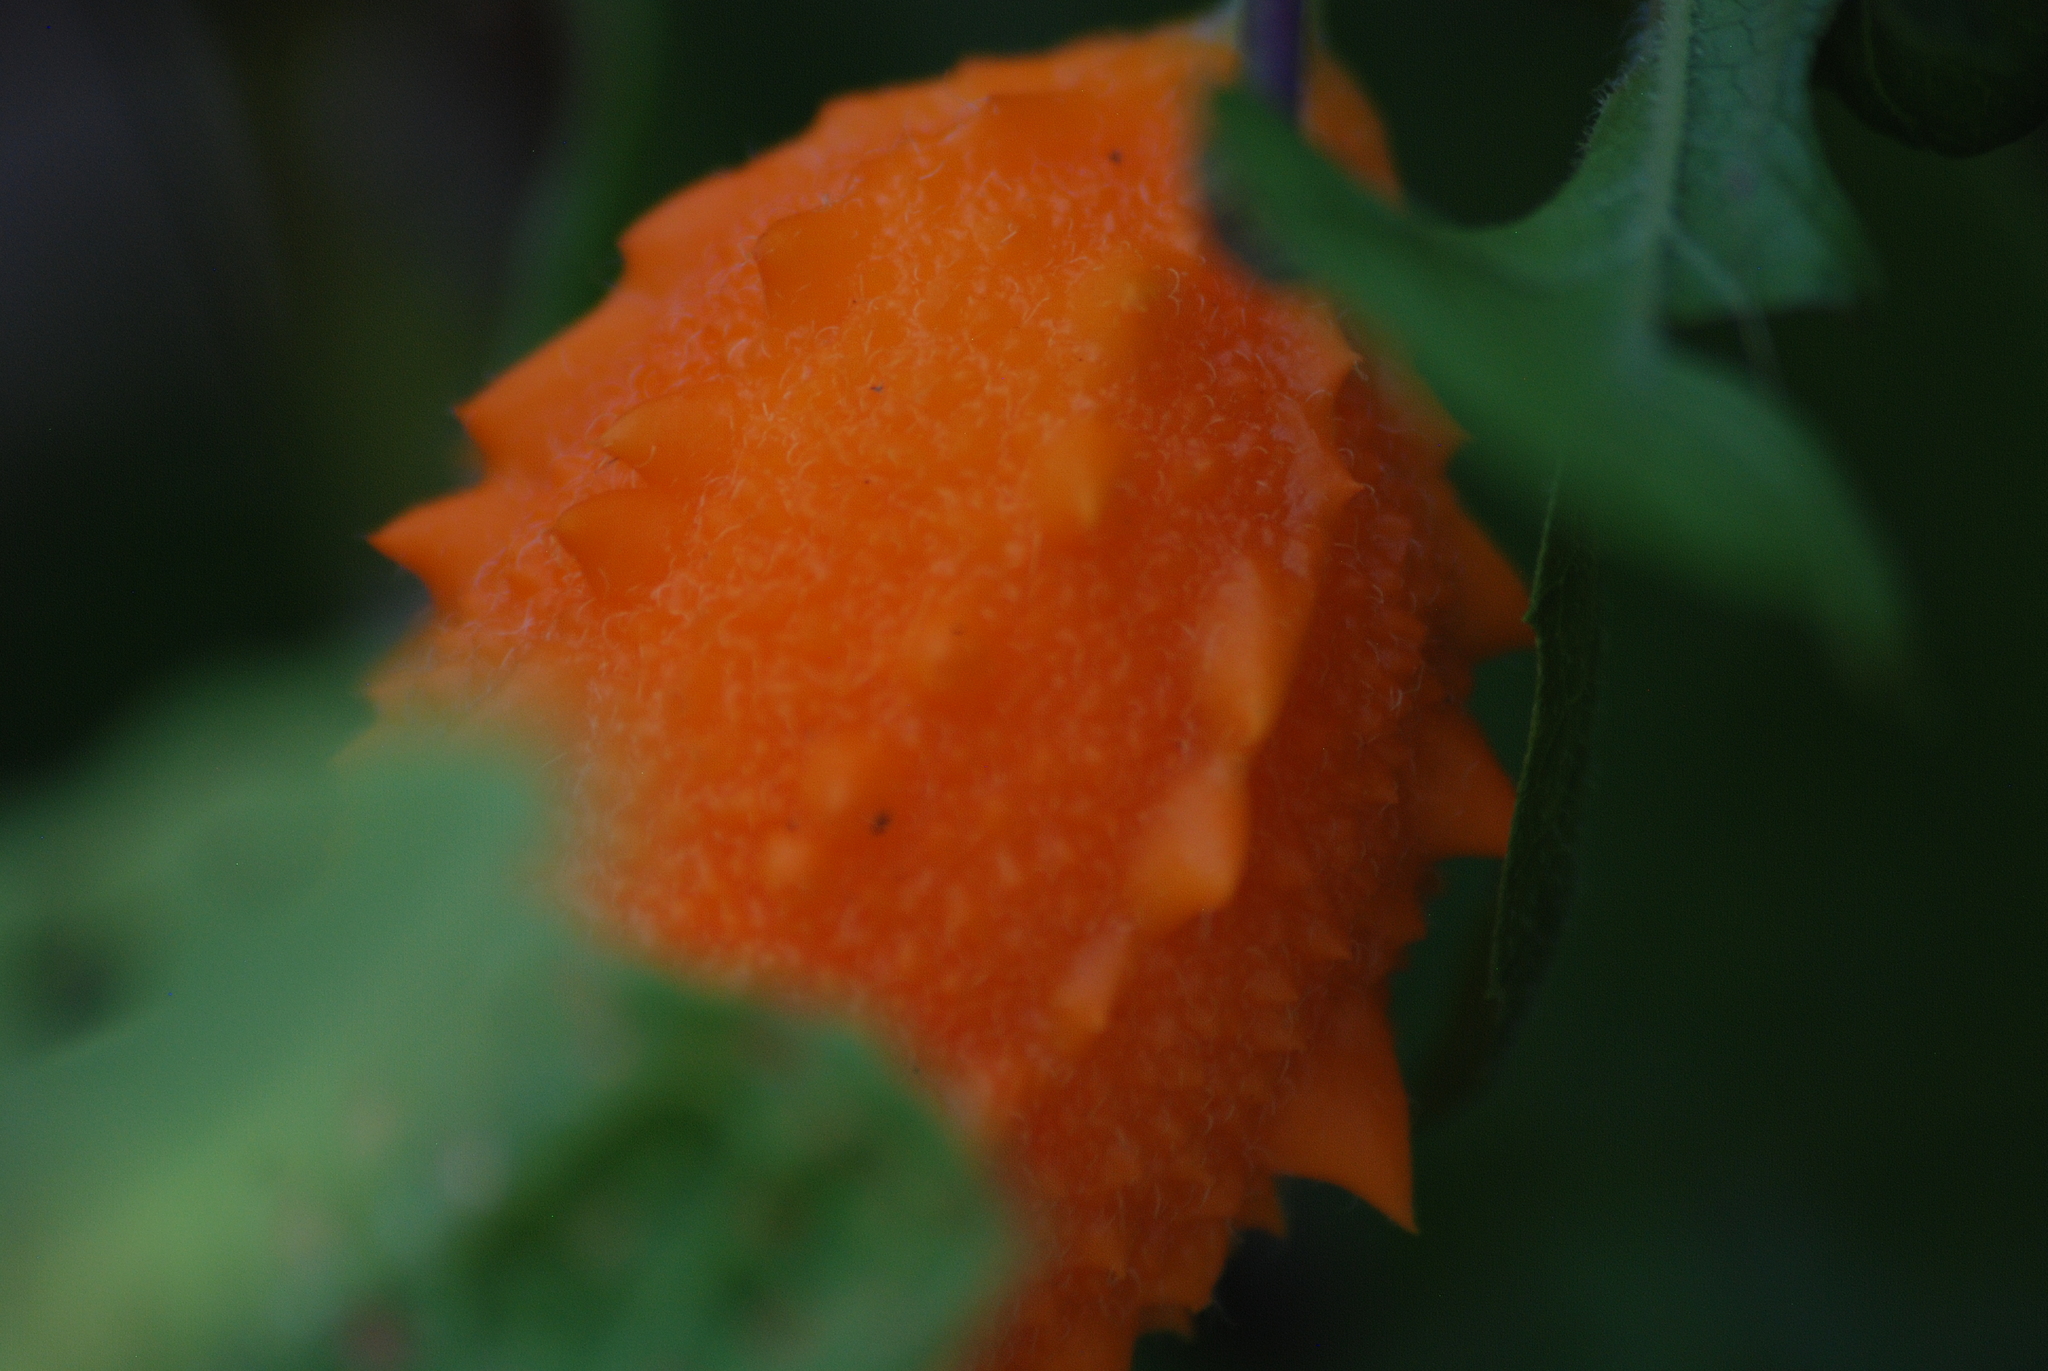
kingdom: Plantae
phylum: Tracheophyta
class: Magnoliopsida
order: Cucurbitales
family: Cucurbitaceae
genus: Momordica
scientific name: Momordica charantia
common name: Balsampear
